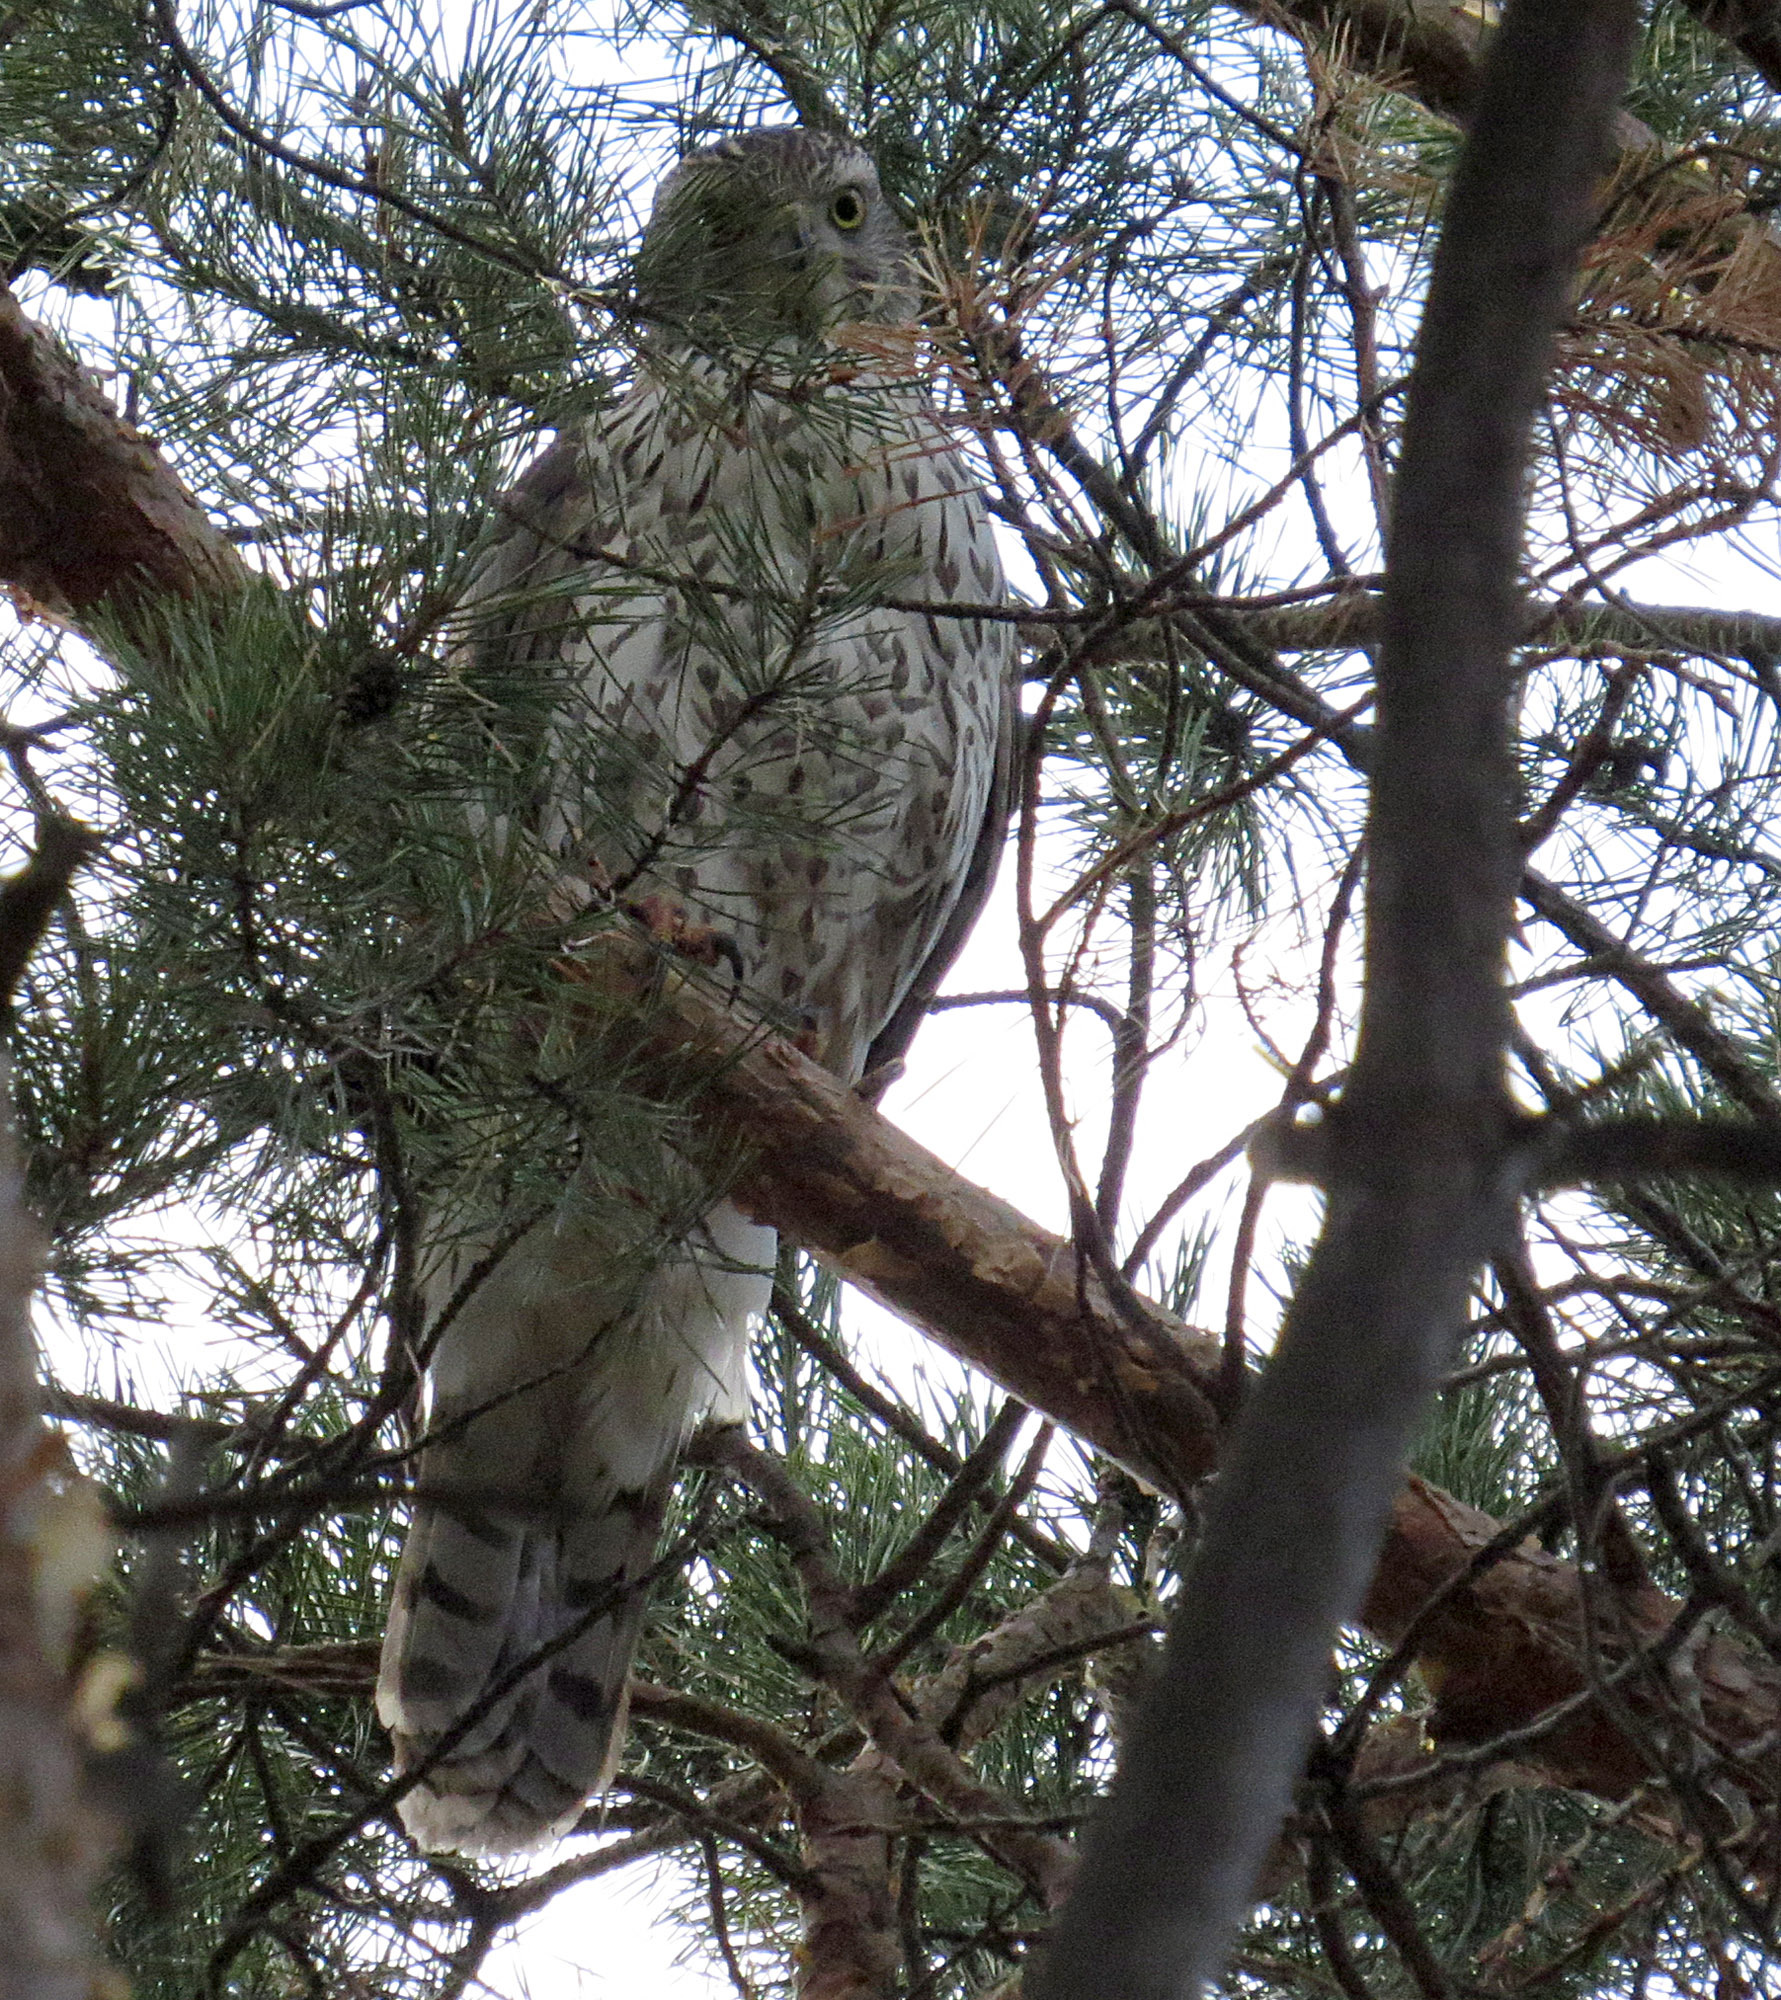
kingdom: Animalia
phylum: Chordata
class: Aves
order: Accipitriformes
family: Accipitridae
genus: Accipiter
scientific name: Accipiter gentilis
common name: Northern goshawk
